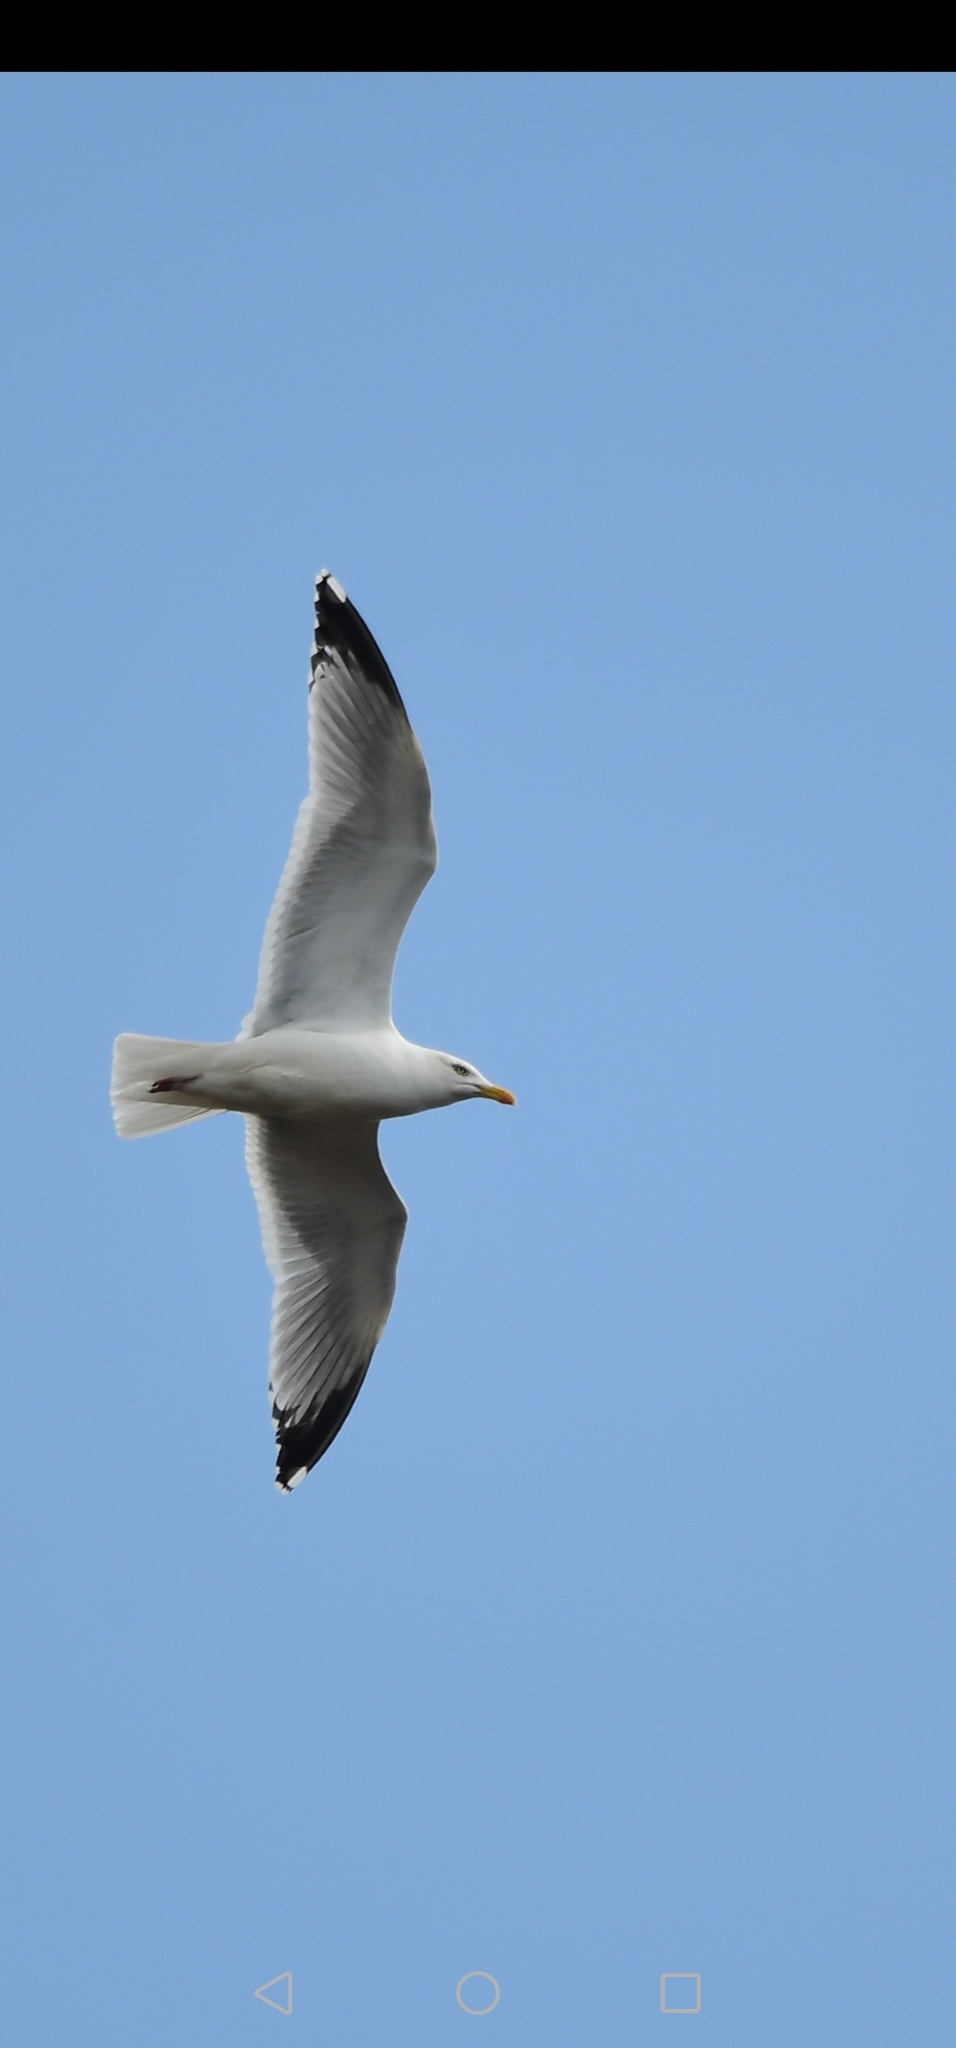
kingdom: Animalia
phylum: Chordata
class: Aves
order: Charadriiformes
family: Laridae
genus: Larus
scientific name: Larus argentatus
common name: Herring gull
